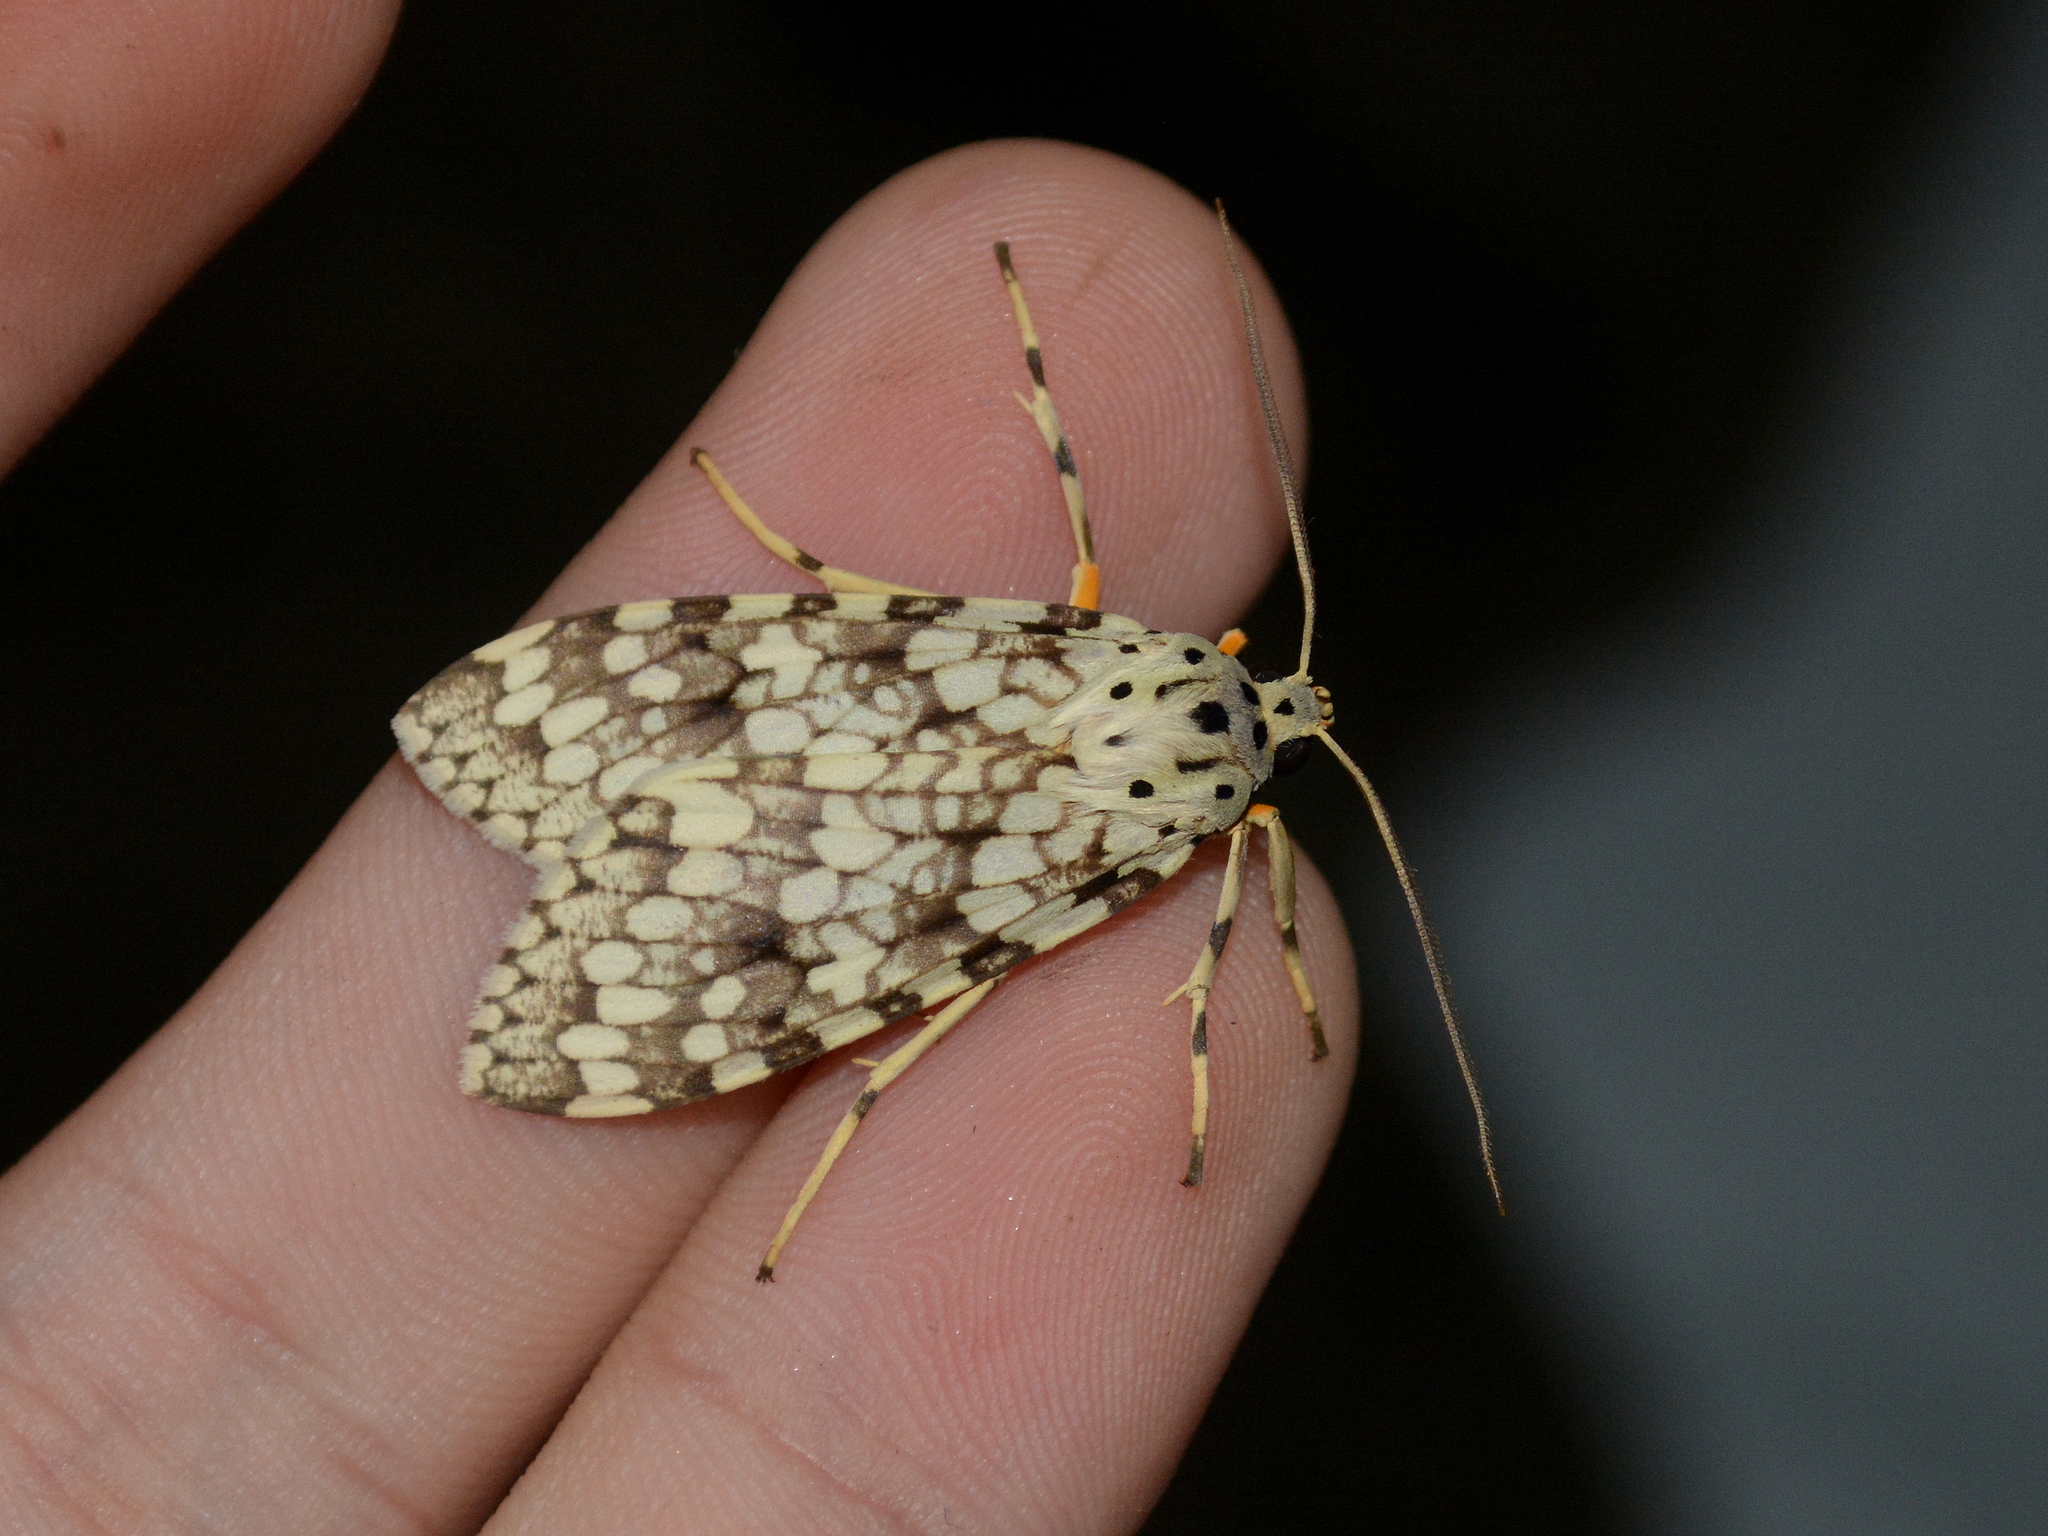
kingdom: Animalia
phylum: Arthropoda
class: Insecta
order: Lepidoptera
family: Erebidae
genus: Carales
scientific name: Carales astur
